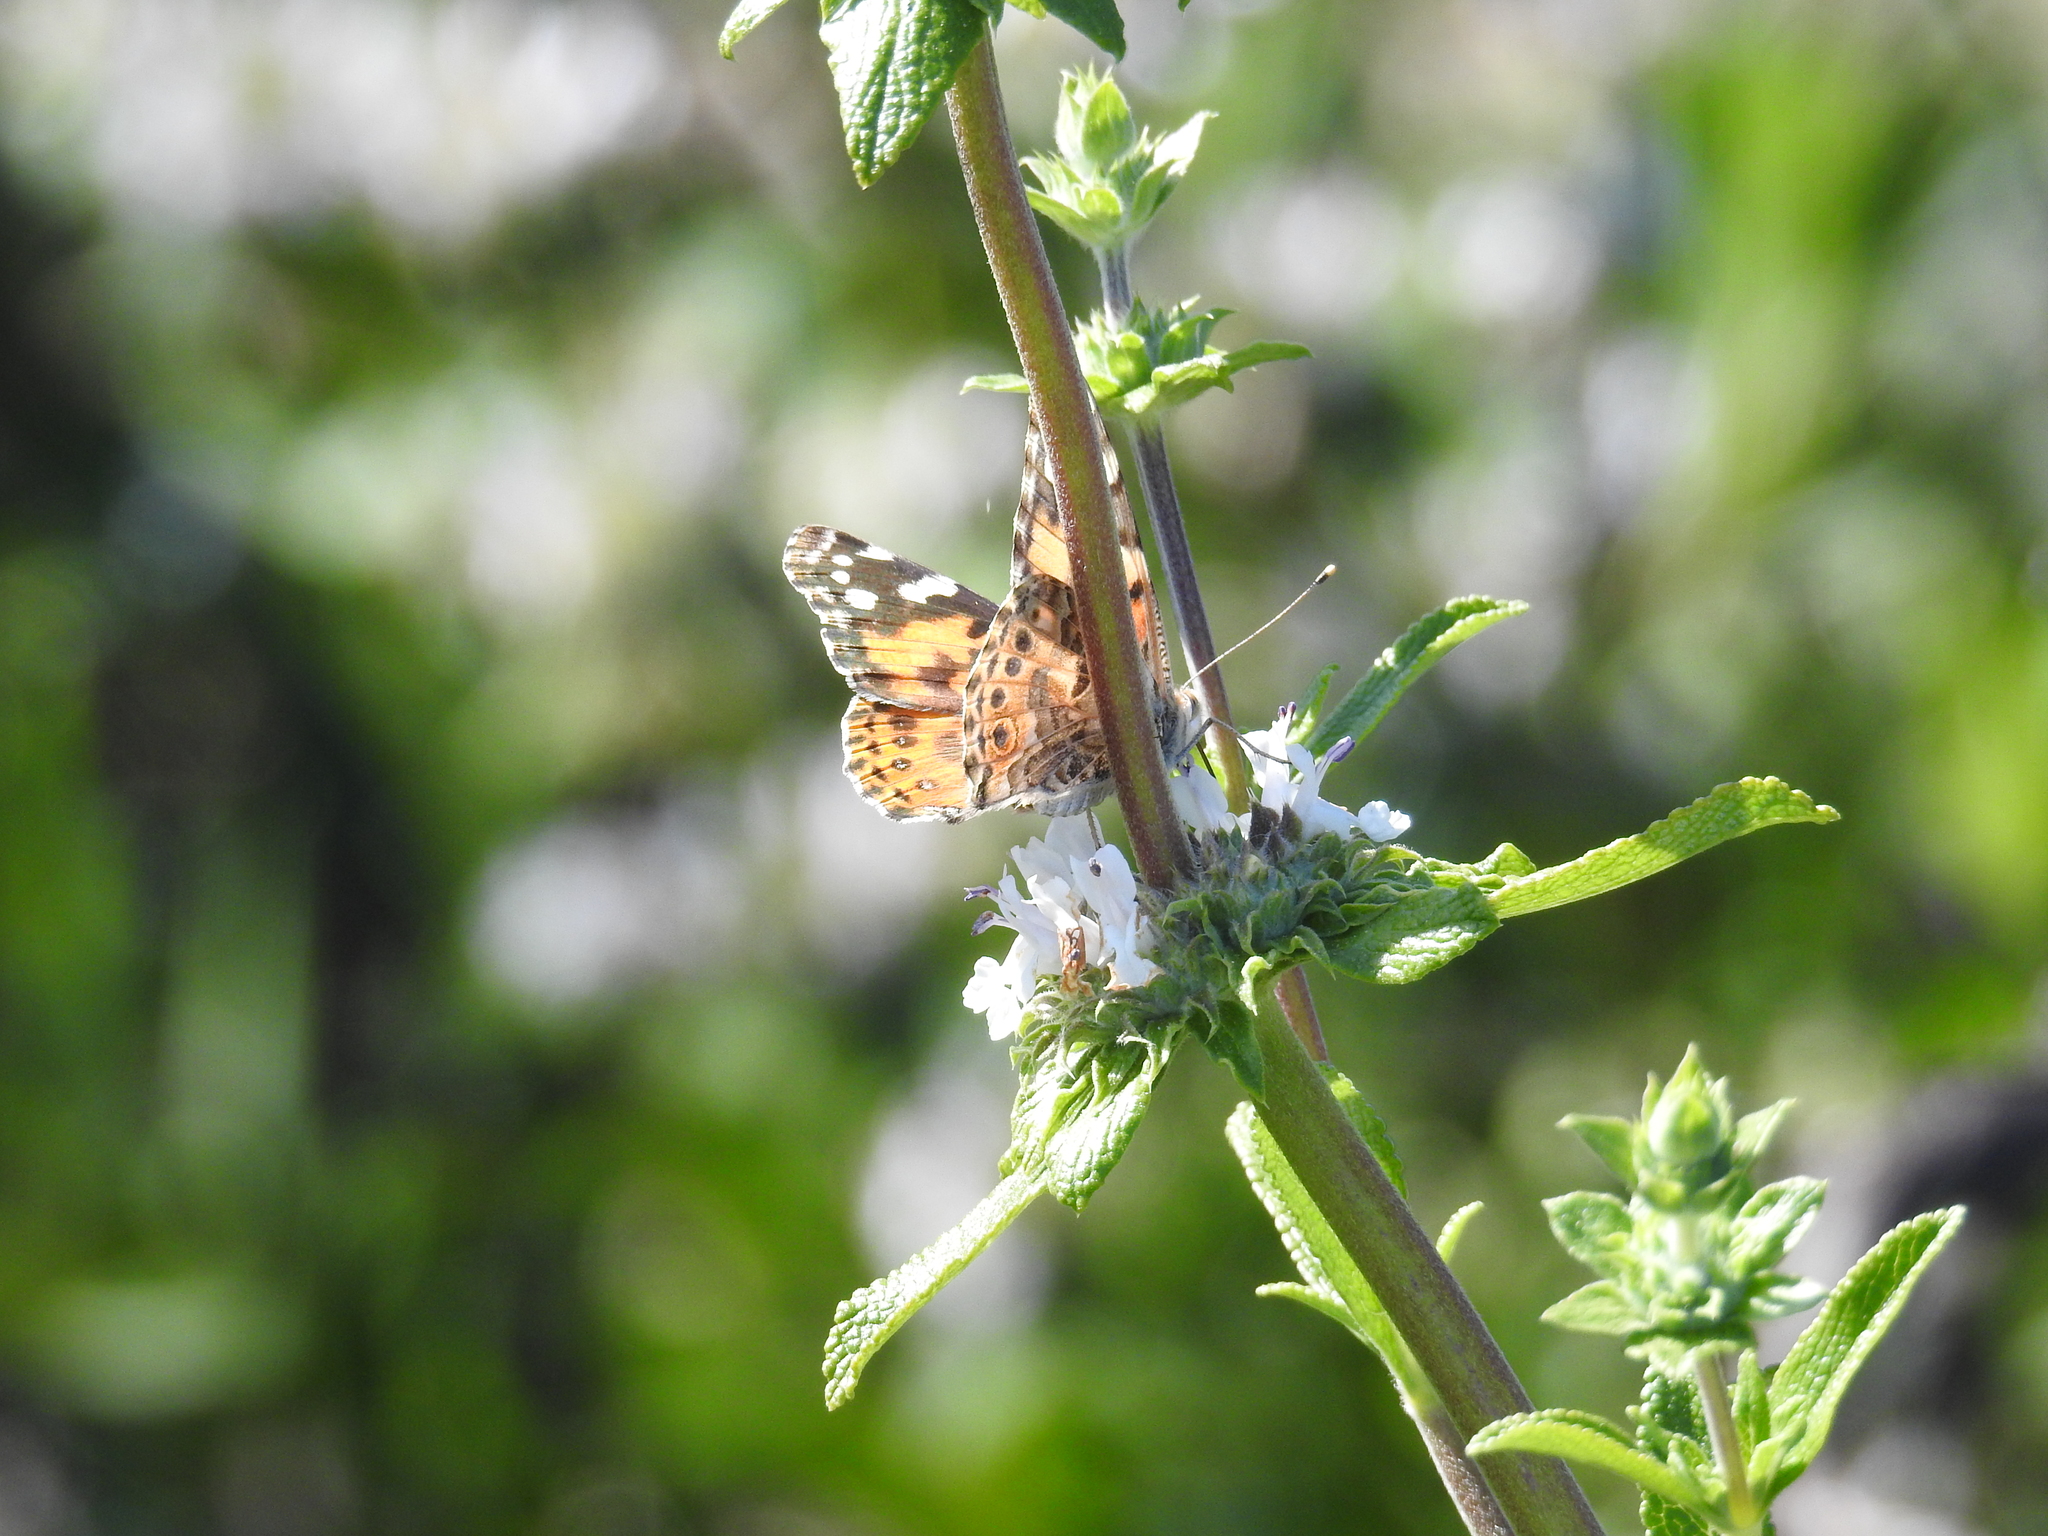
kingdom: Animalia
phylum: Arthropoda
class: Insecta
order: Lepidoptera
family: Nymphalidae
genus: Vanessa
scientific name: Vanessa cardui
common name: Painted lady
